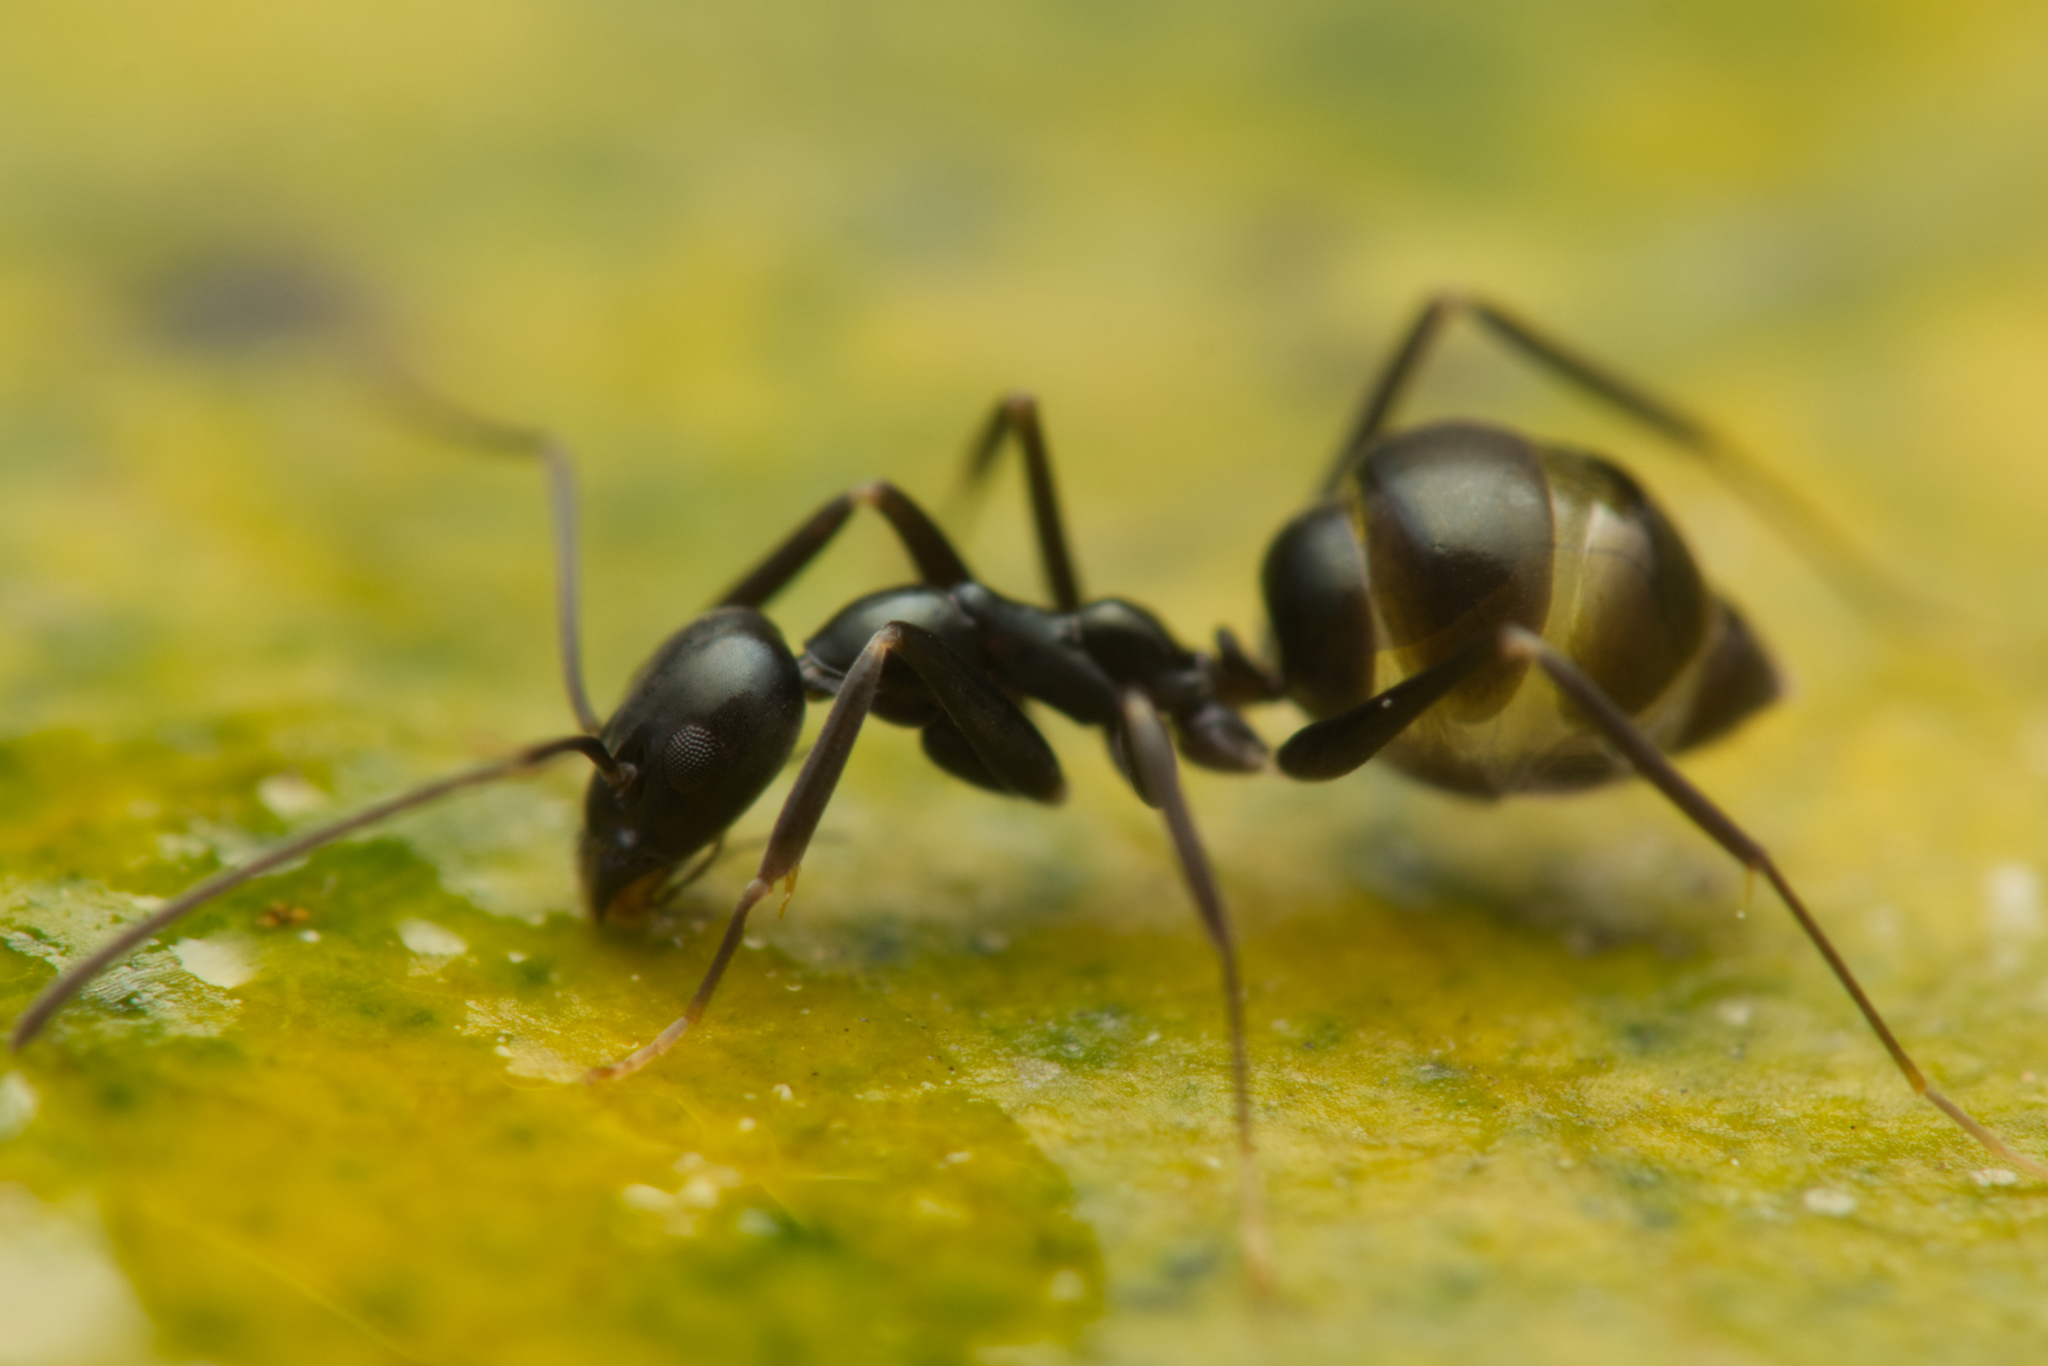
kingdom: Animalia
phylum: Arthropoda
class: Insecta
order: Hymenoptera
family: Formicidae
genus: Leptomyrmex
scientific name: Leptomyrmex burwelli
